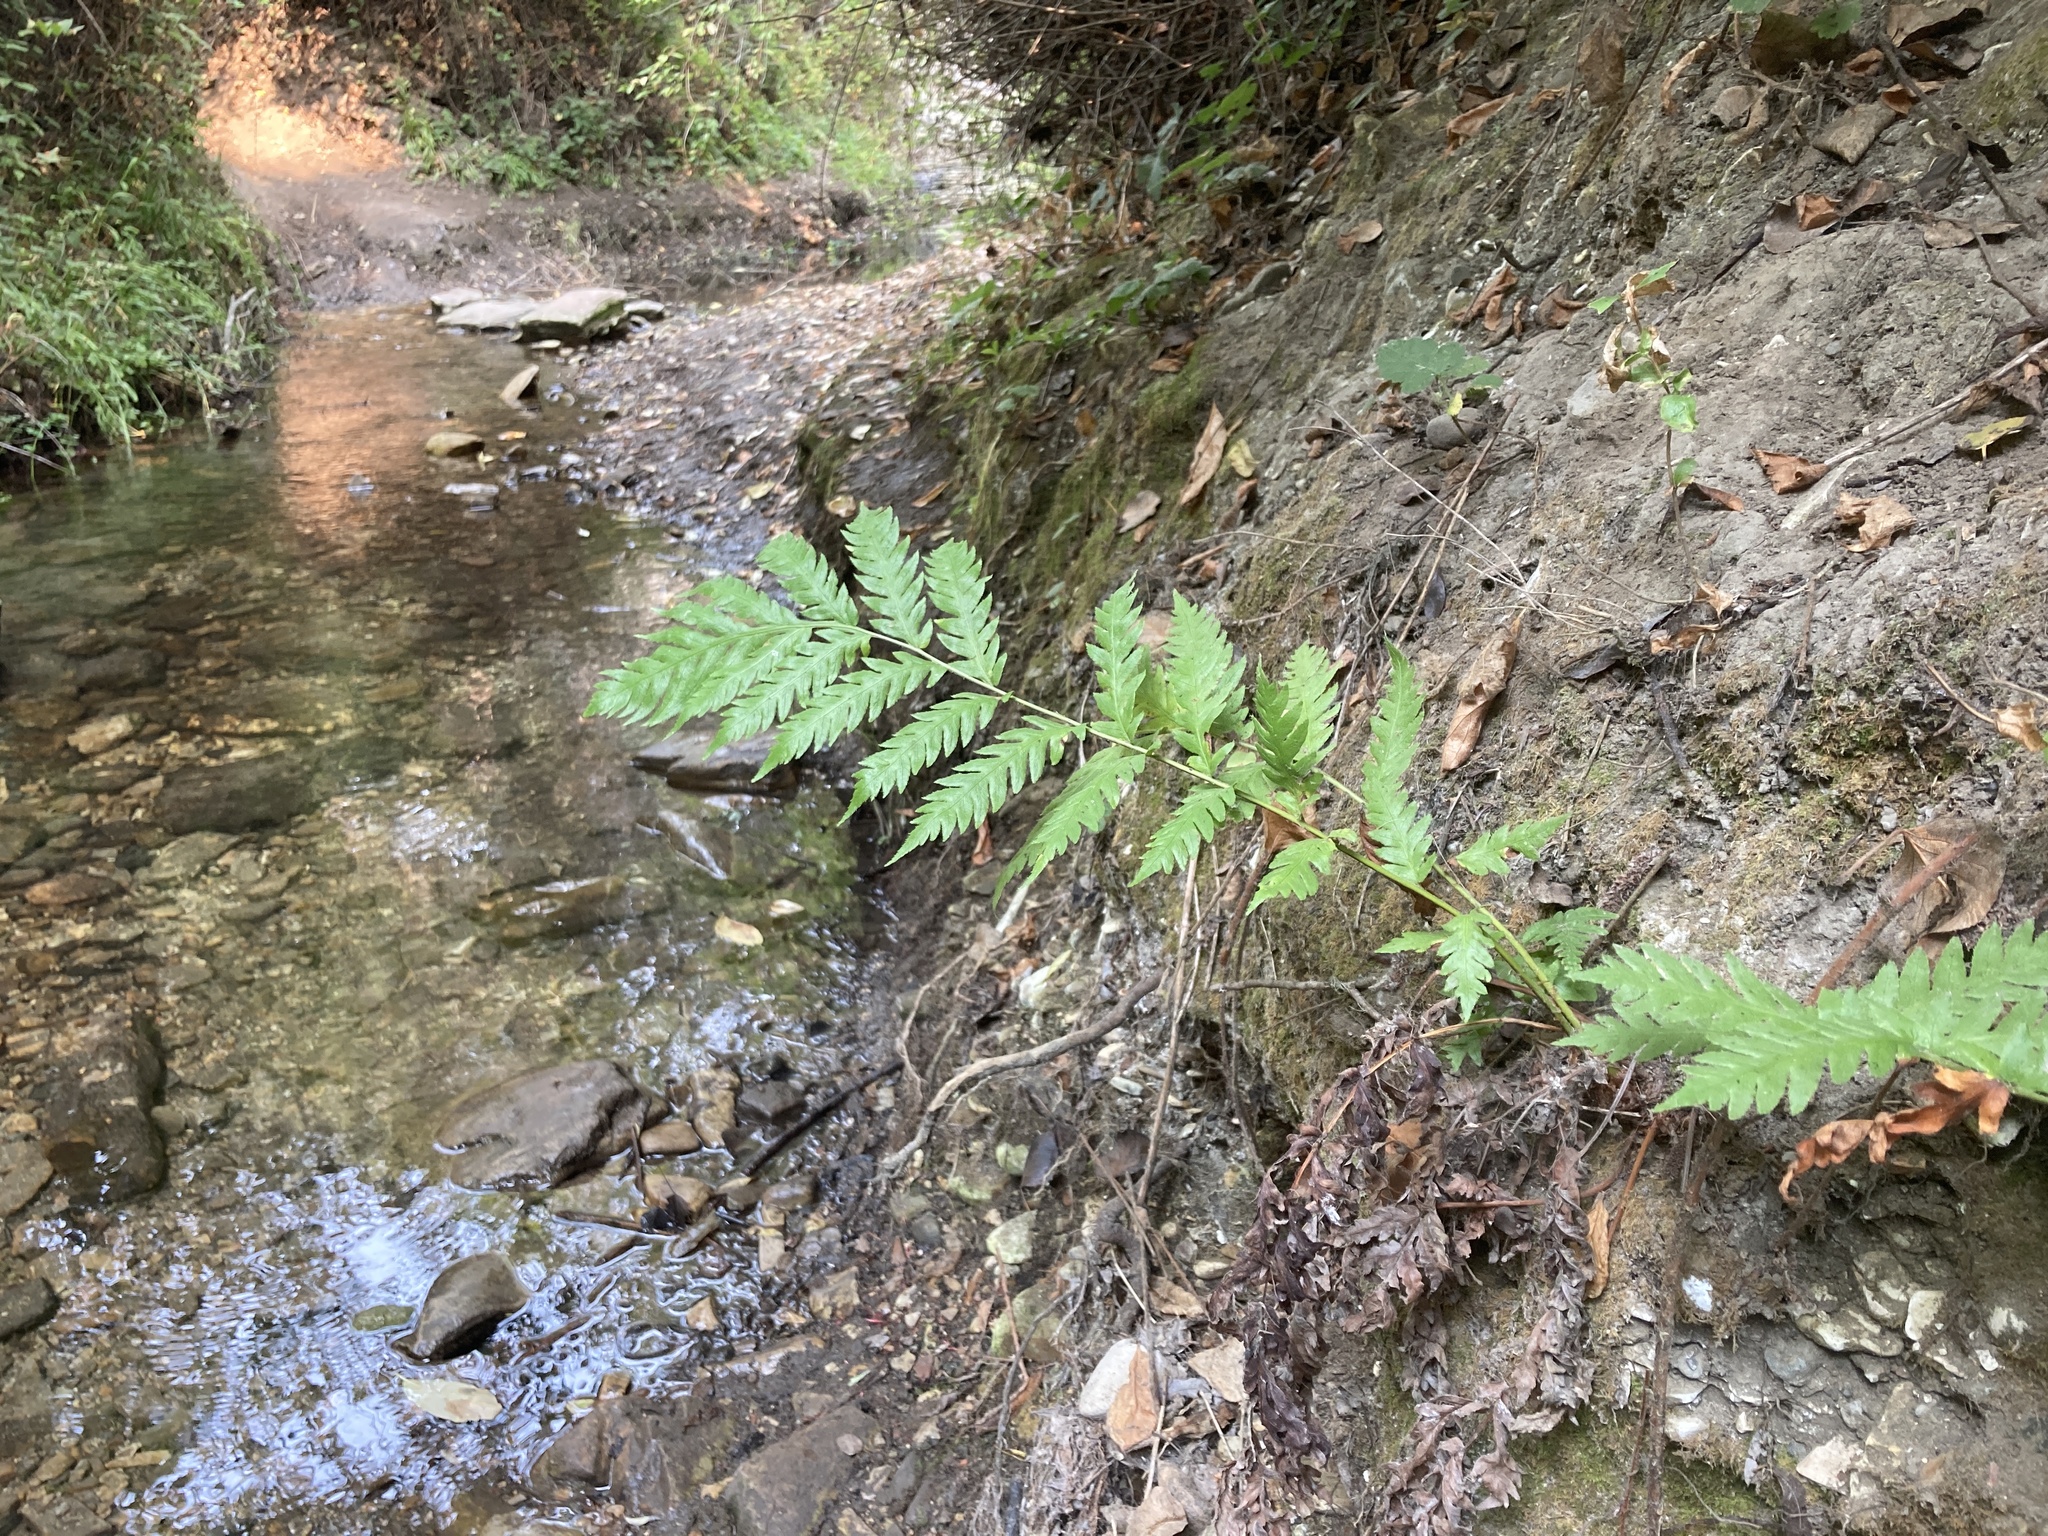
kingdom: Plantae
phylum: Tracheophyta
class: Polypodiopsida
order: Polypodiales
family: Blechnaceae
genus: Woodwardia
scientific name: Woodwardia fimbriata
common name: Giant chain fern
